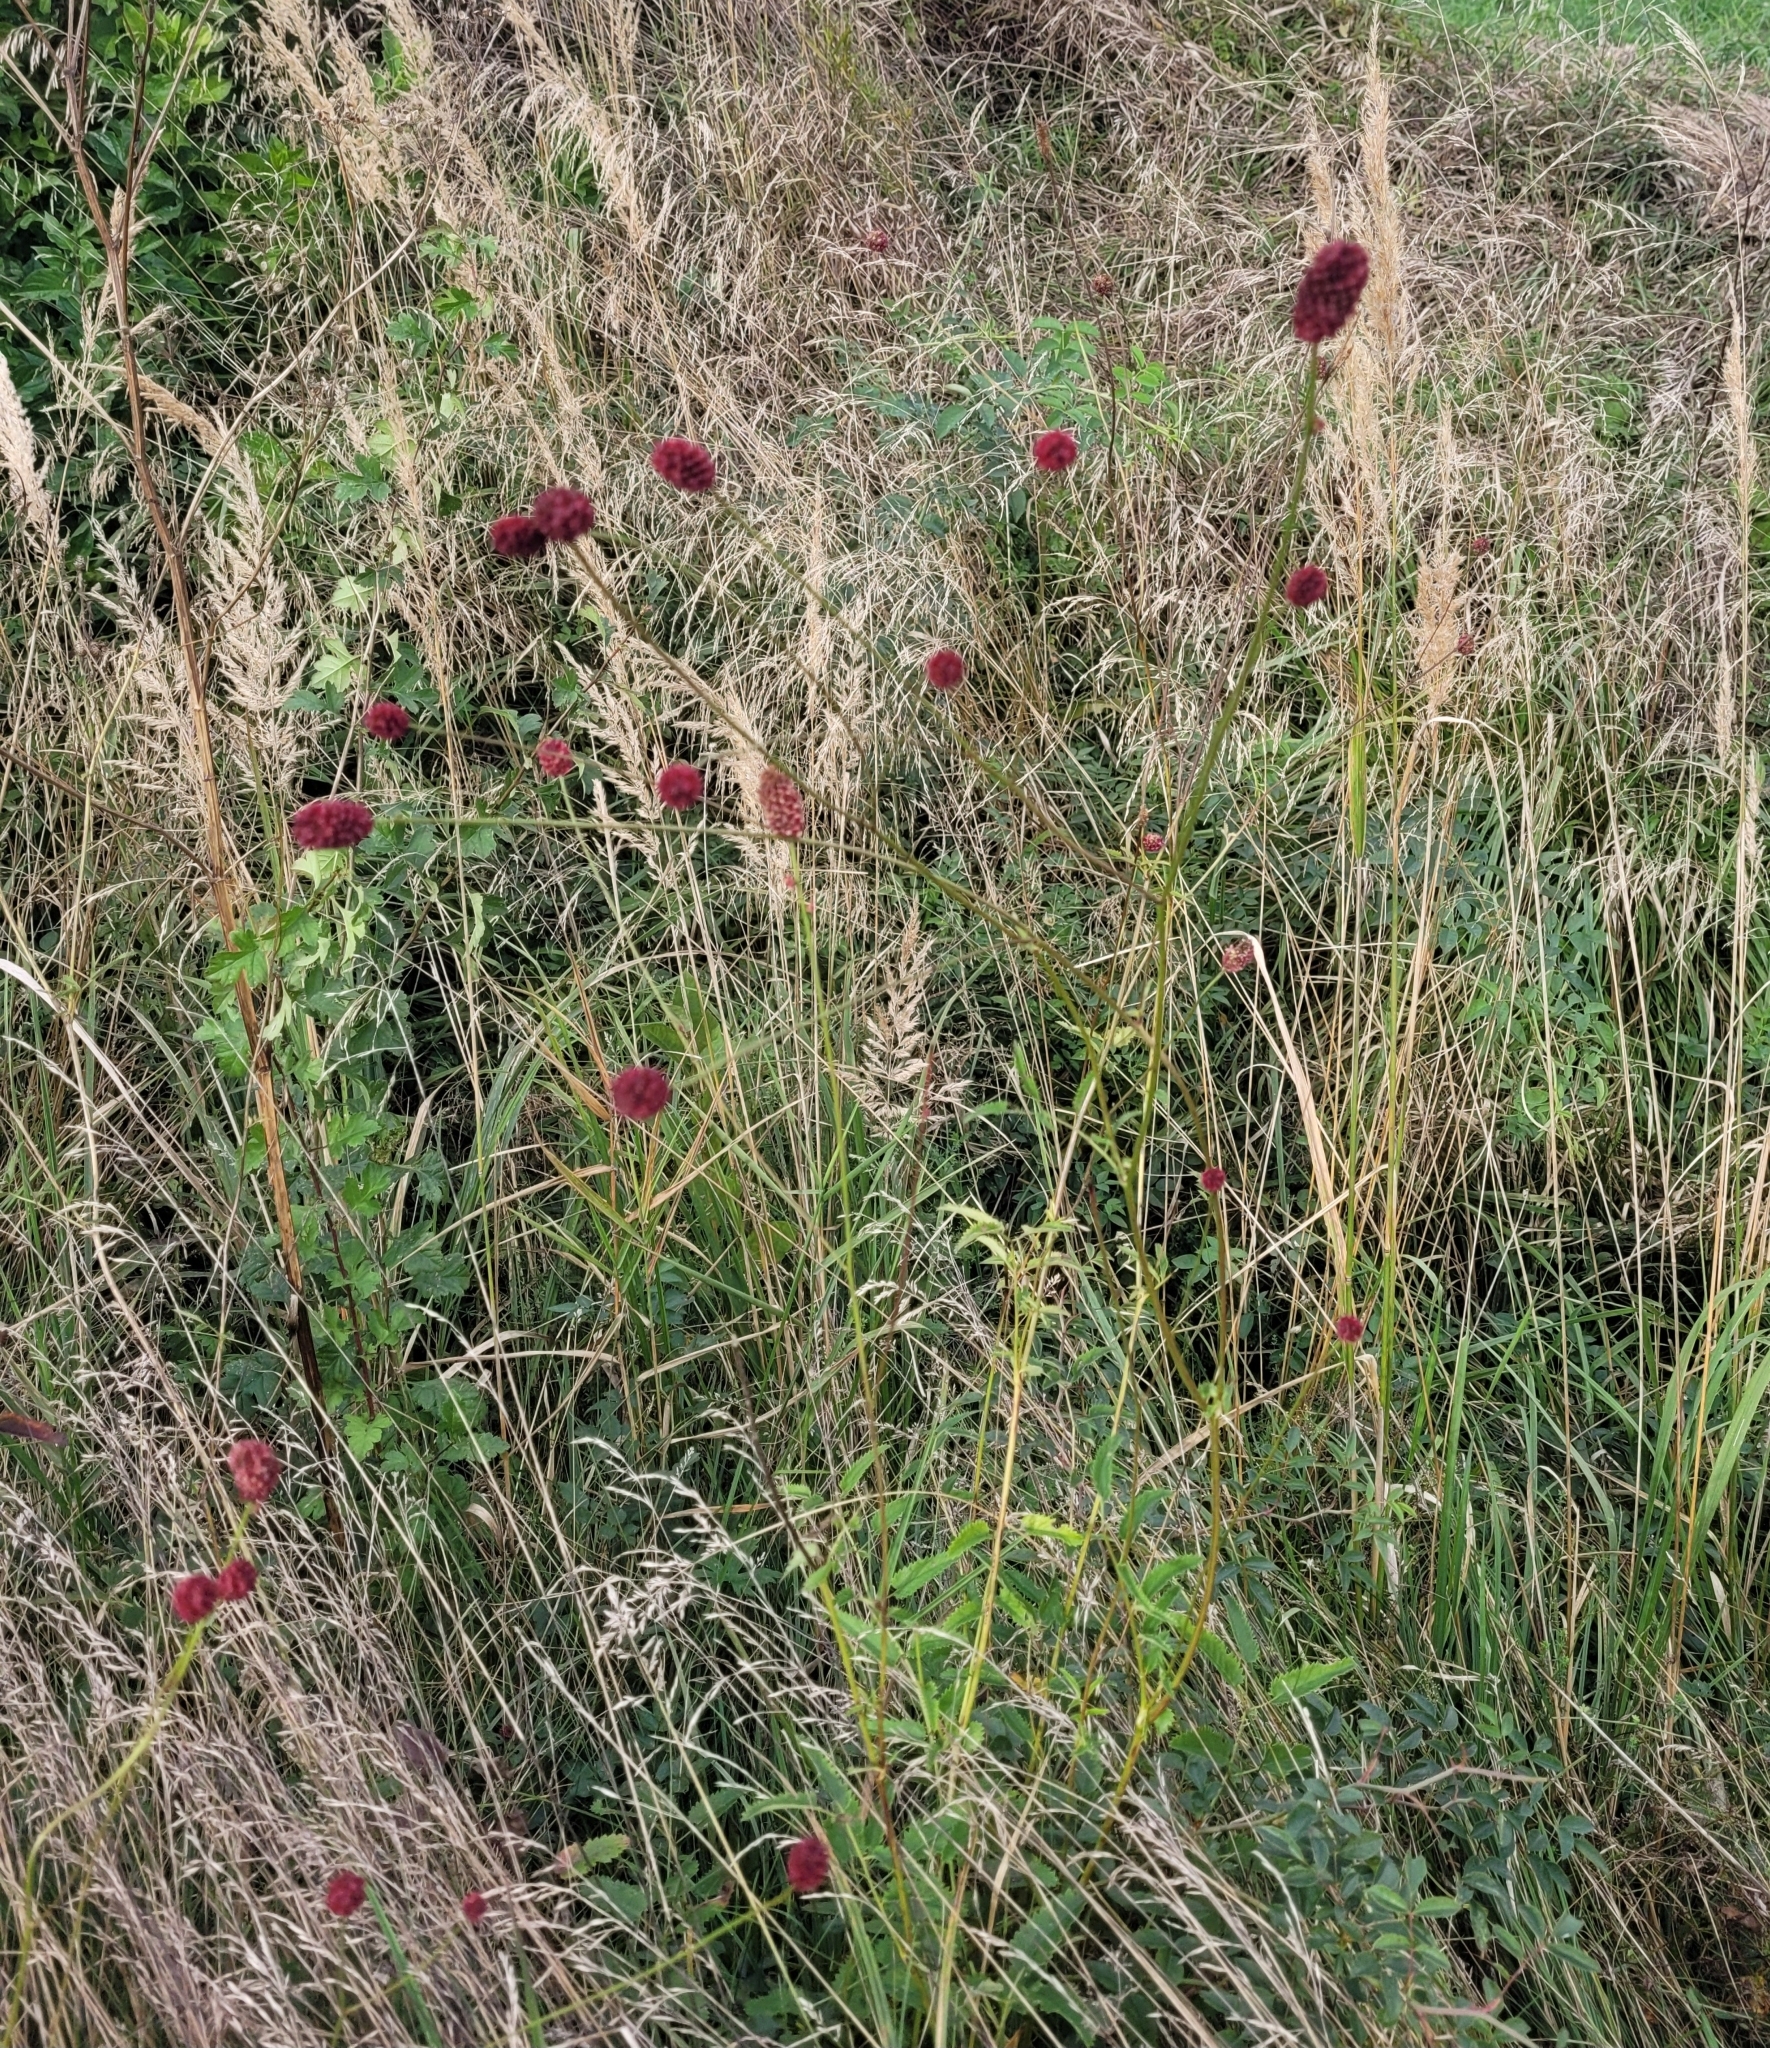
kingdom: Plantae
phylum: Tracheophyta
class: Magnoliopsida
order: Rosales
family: Rosaceae
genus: Sanguisorba
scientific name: Sanguisorba officinalis
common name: Great burnet
